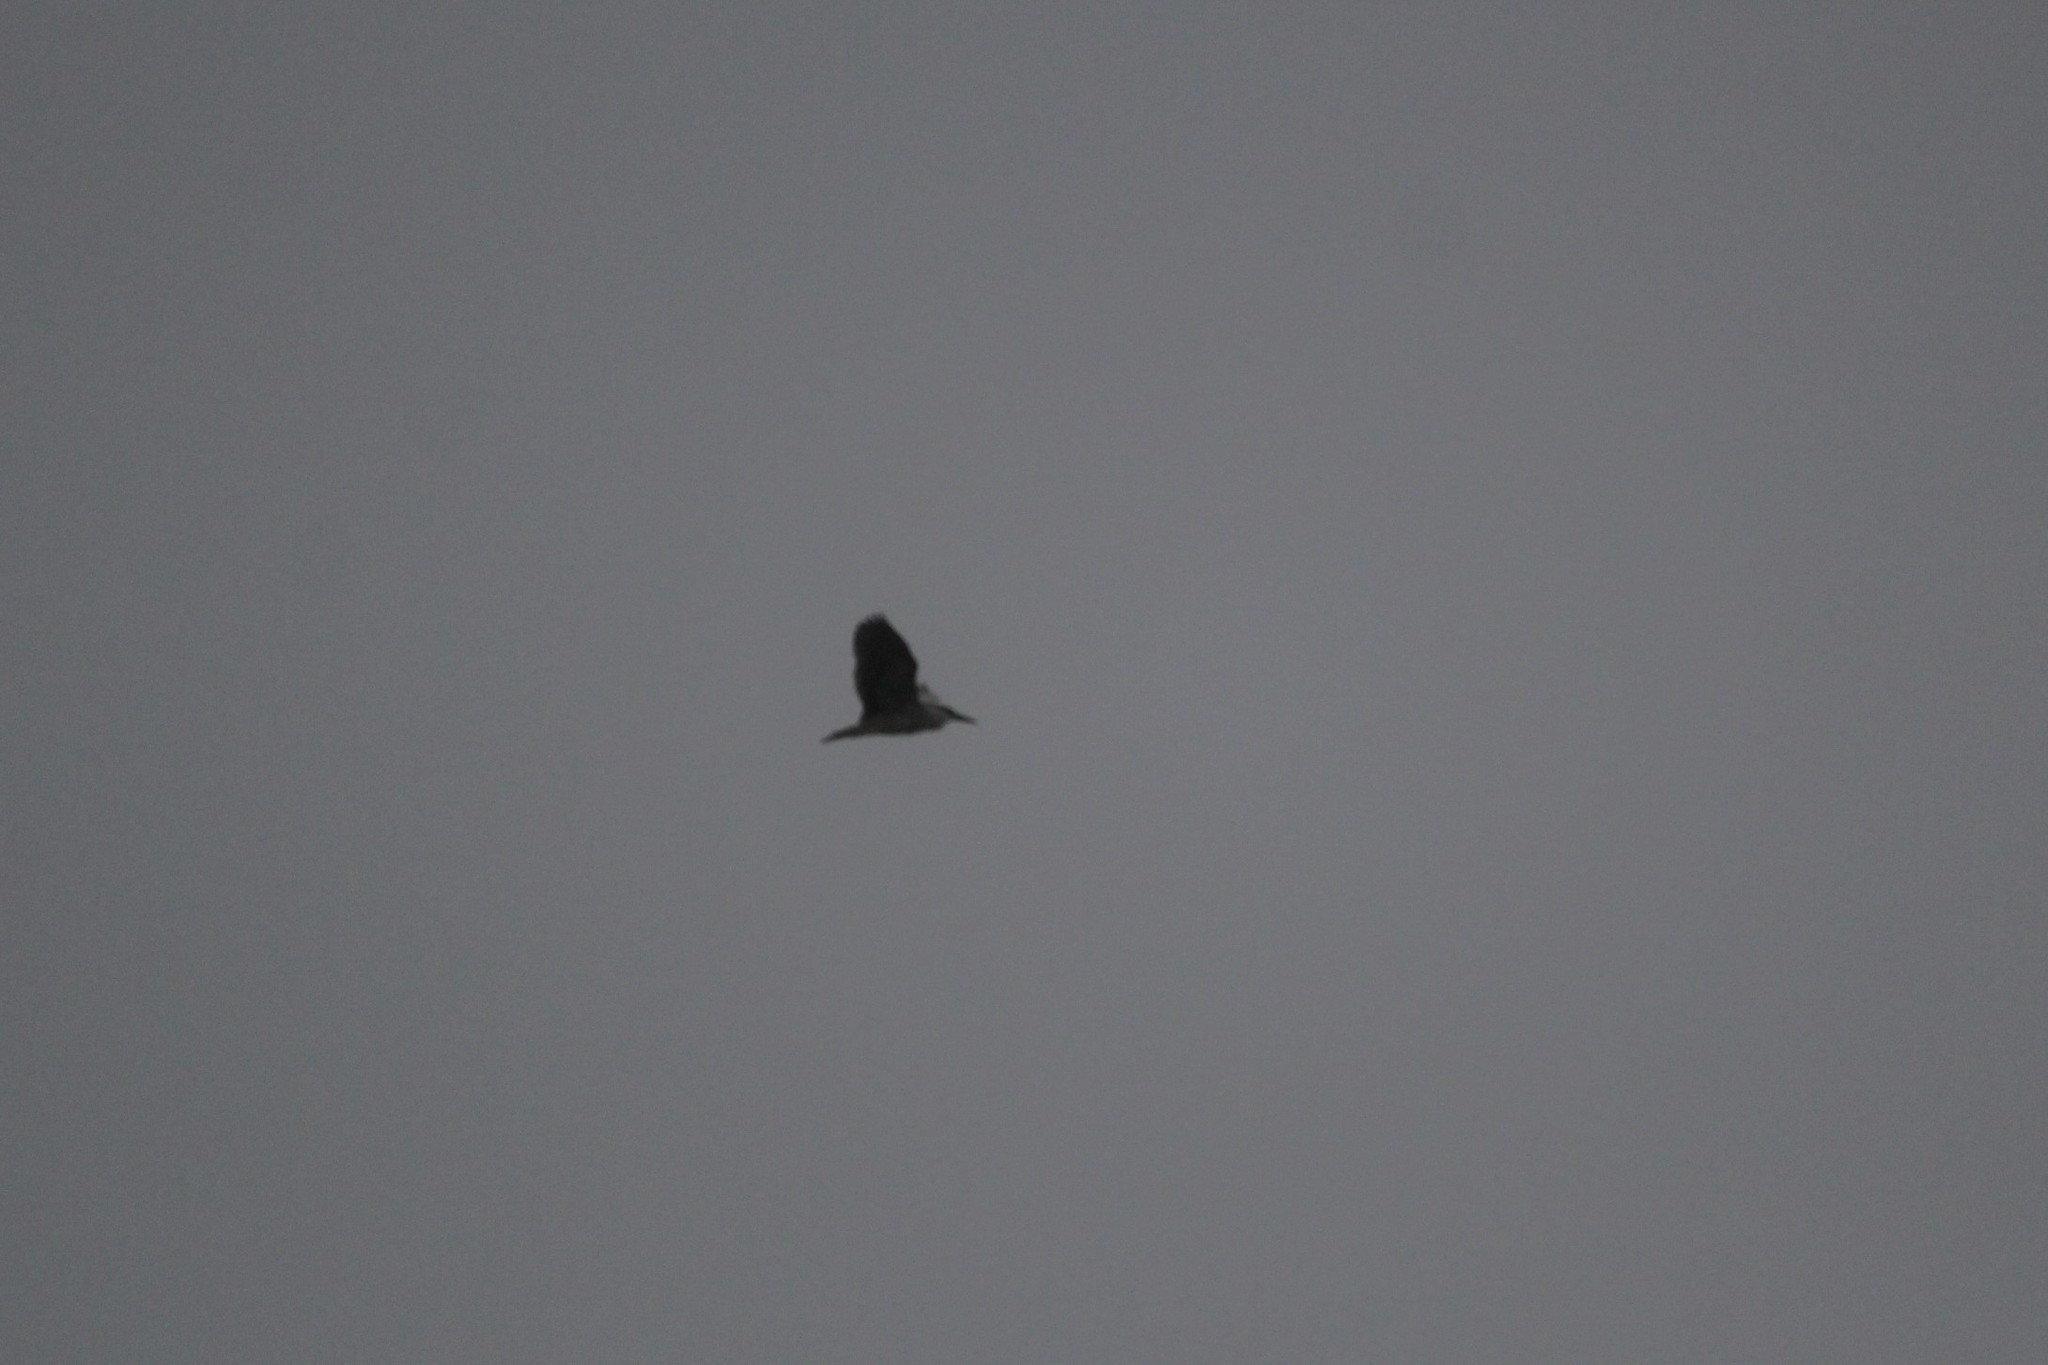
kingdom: Animalia
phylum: Chordata
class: Aves
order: Pelecaniformes
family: Ardeidae
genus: Nycticorax
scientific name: Nycticorax nycticorax
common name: Black-crowned night heron
